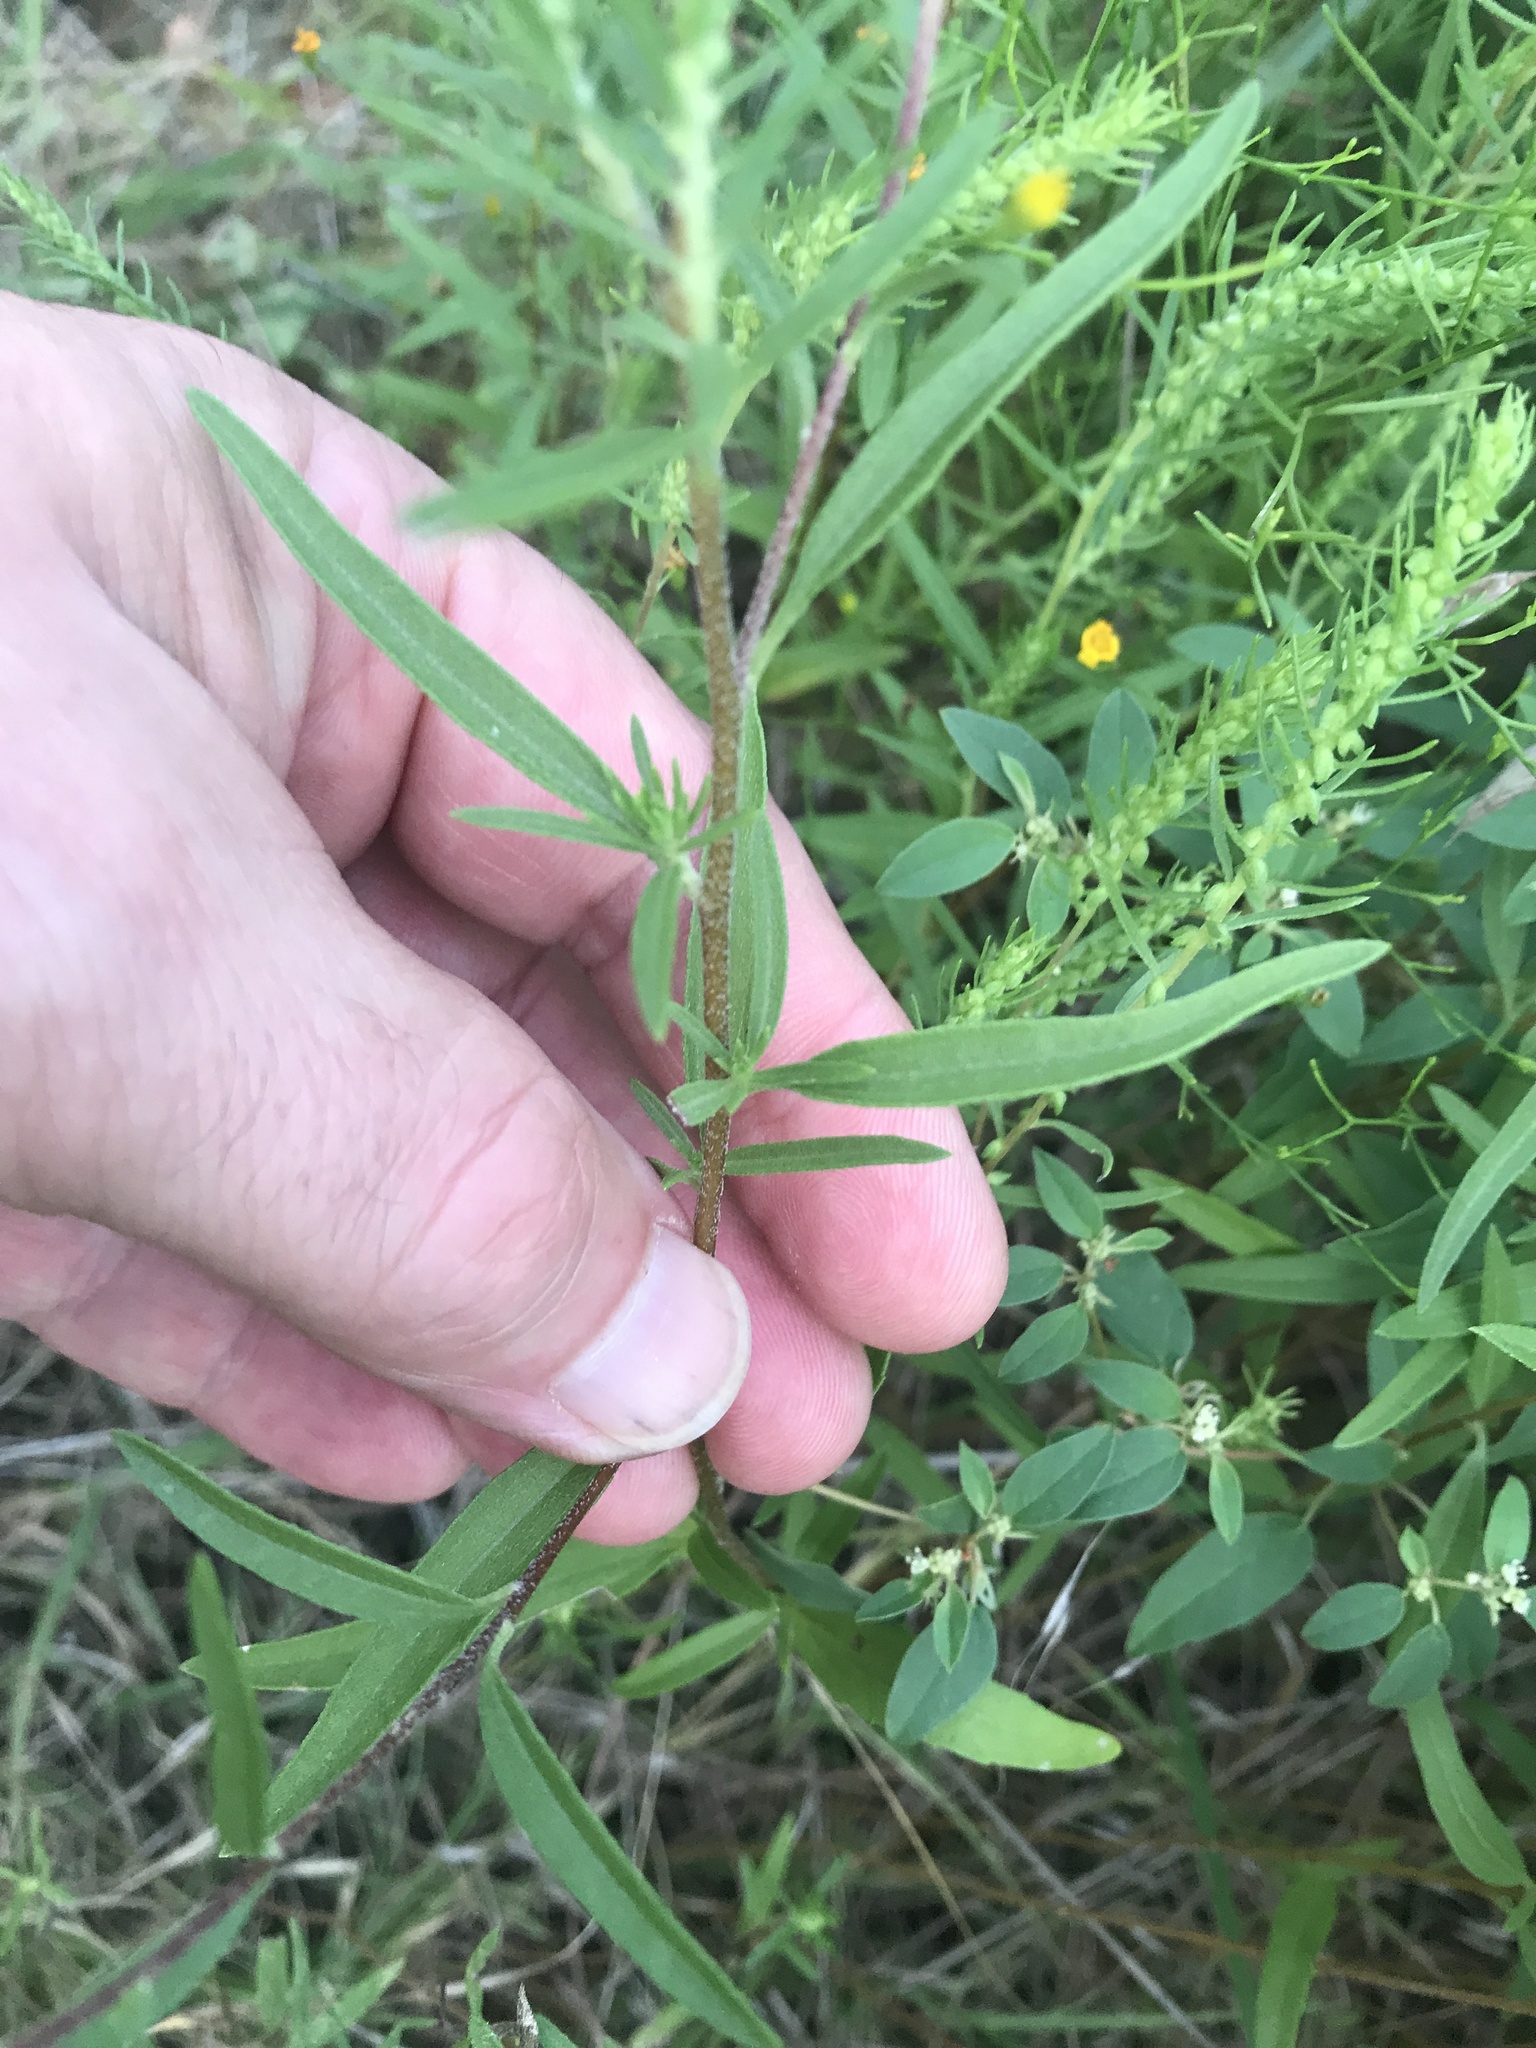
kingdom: Plantae
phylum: Tracheophyta
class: Magnoliopsida
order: Asterales
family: Asteraceae
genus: Iva
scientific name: Iva annua
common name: Marsh-elder
